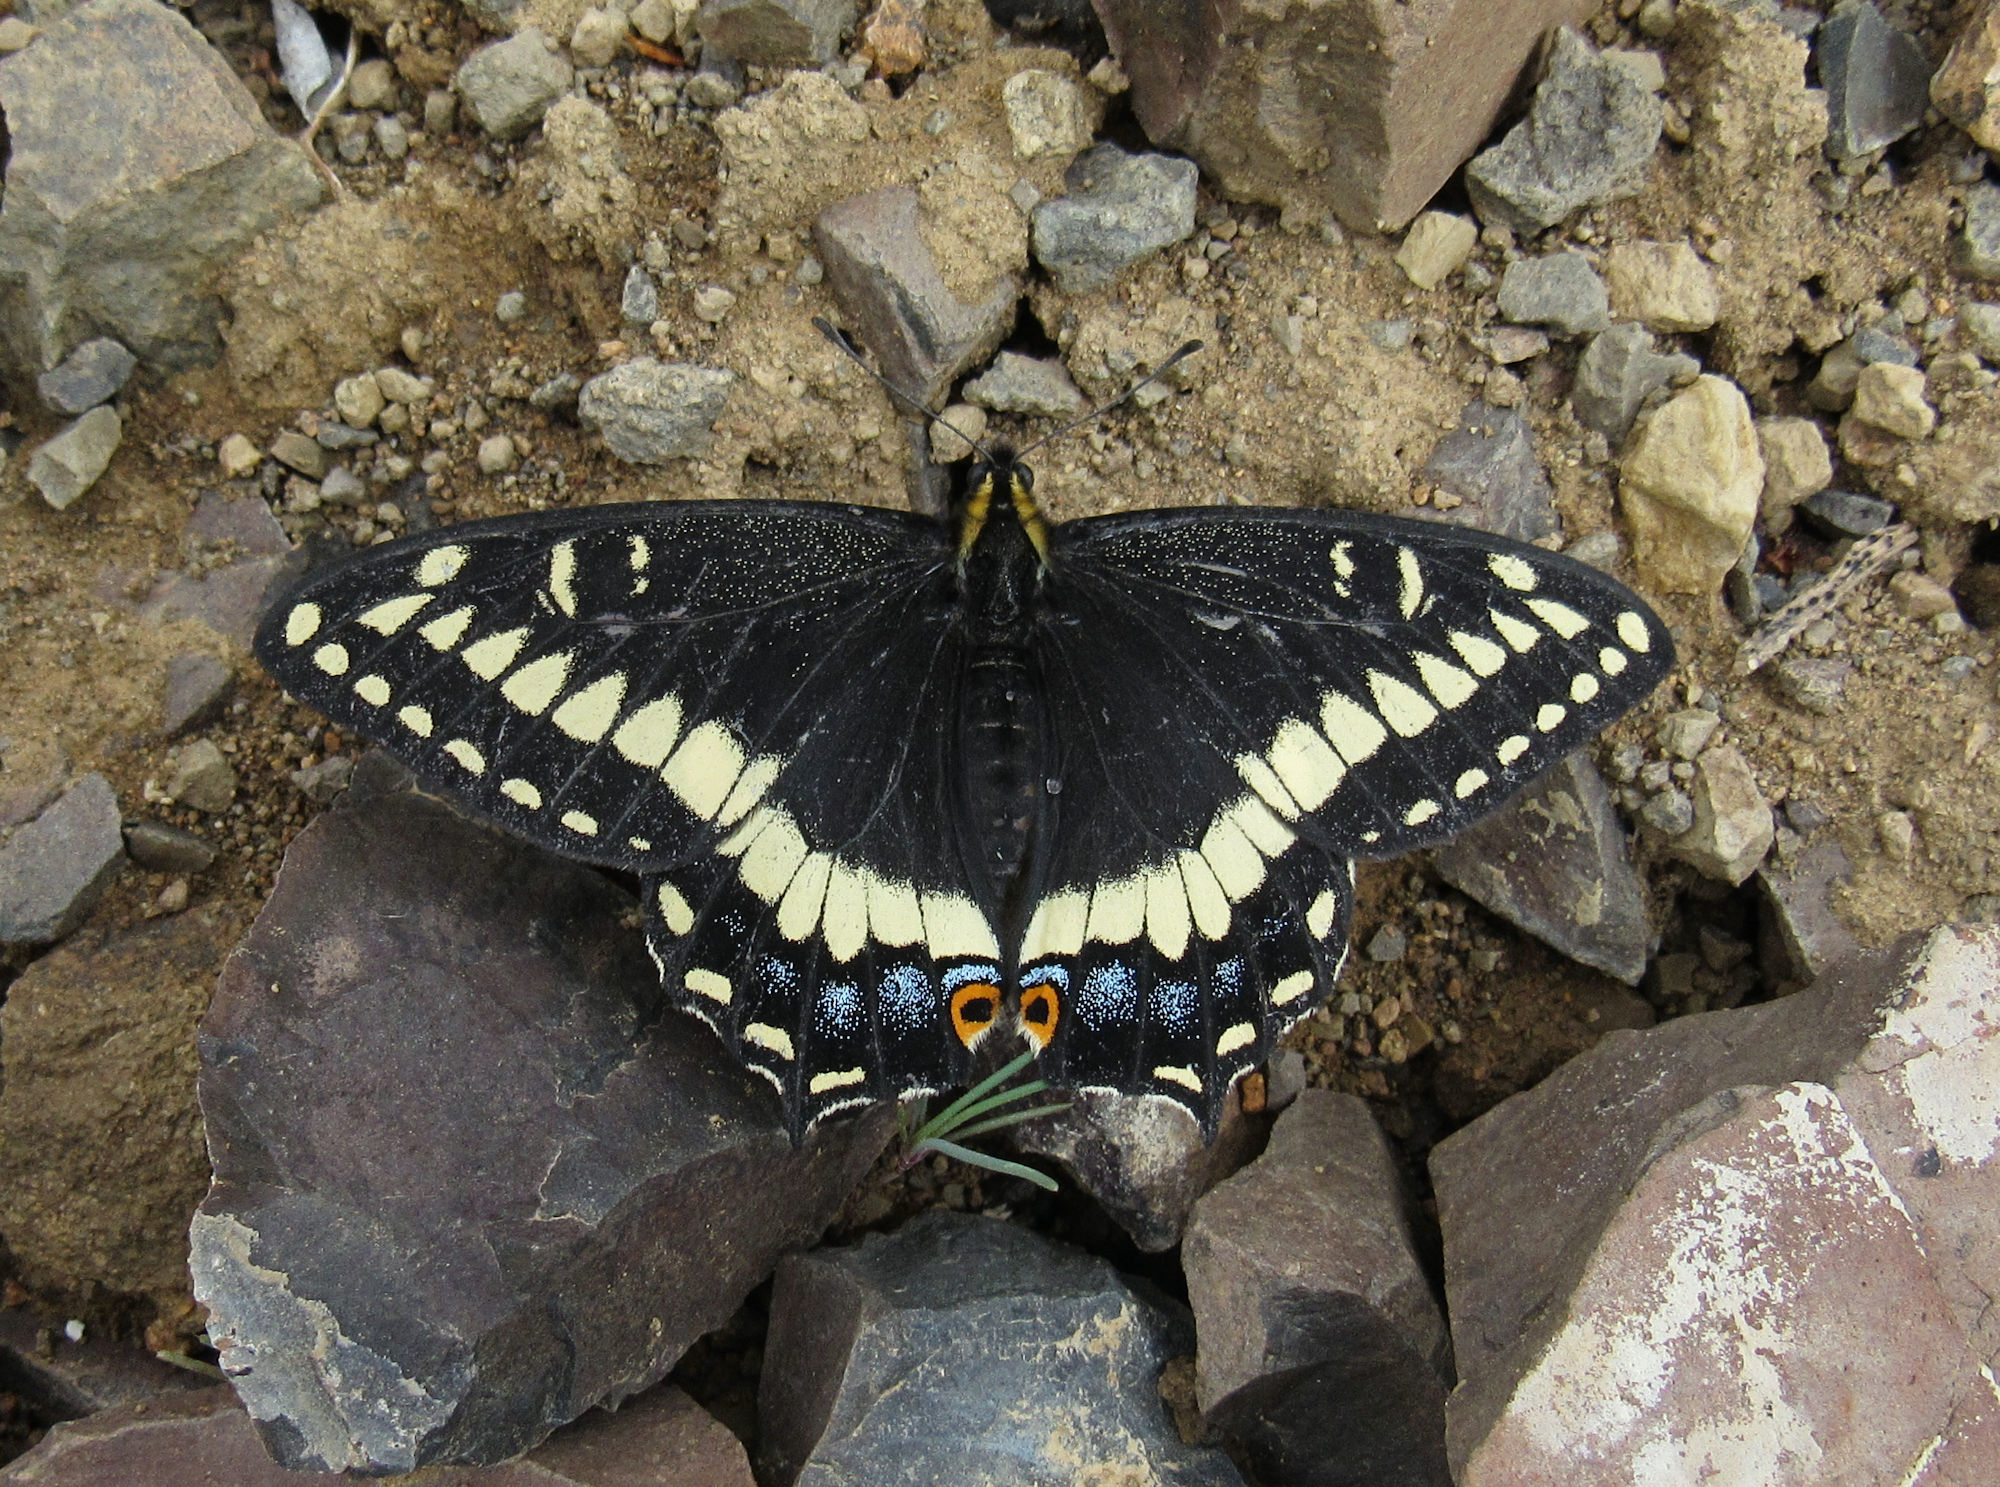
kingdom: Animalia
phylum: Arthropoda
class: Insecta
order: Lepidoptera
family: Papilionidae
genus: Papilio
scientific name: Papilio indra
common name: Cliff swallowtail
